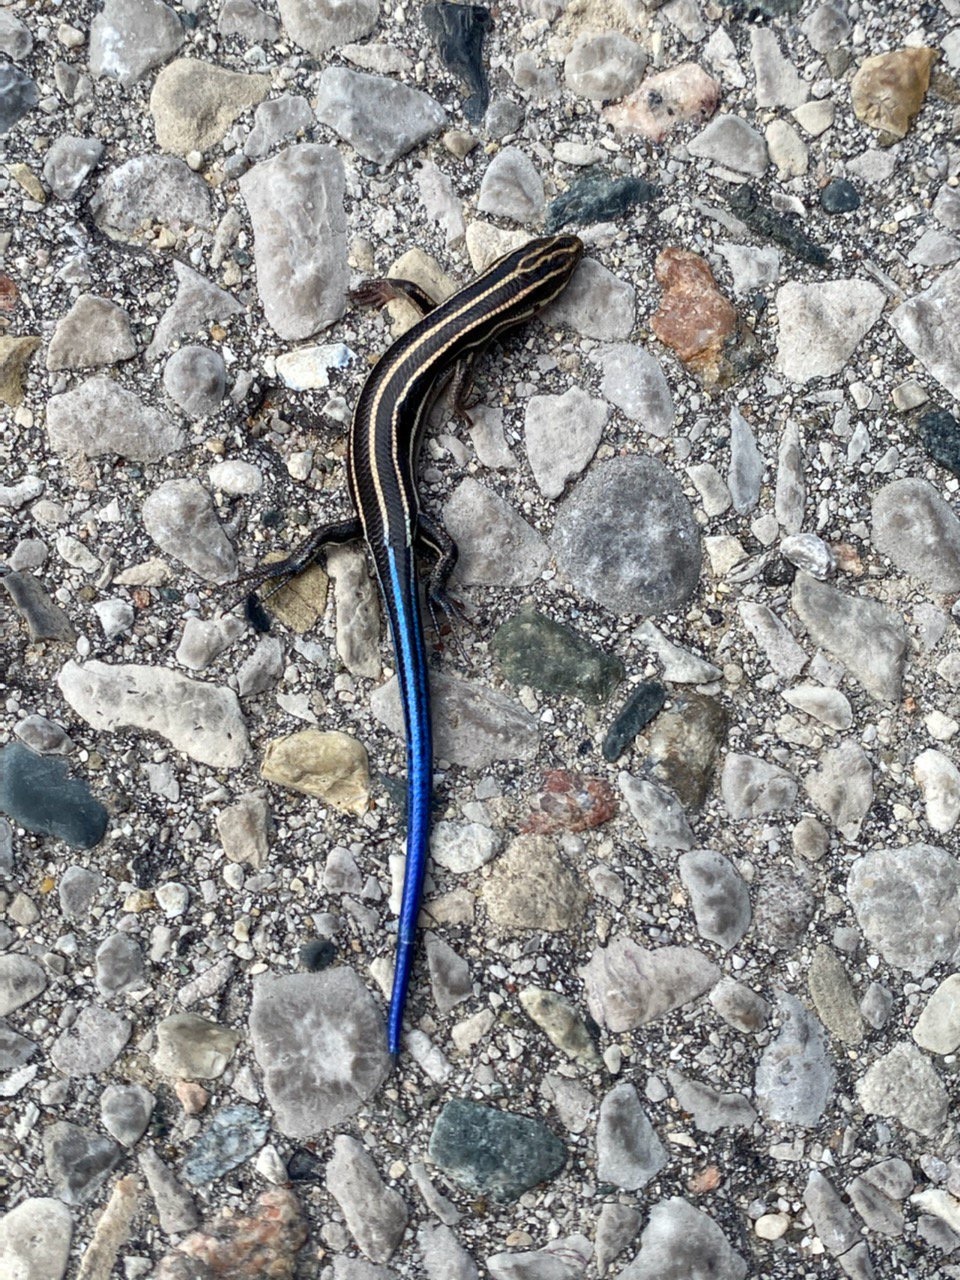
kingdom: Animalia
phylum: Chordata
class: Squamata
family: Scincidae
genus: Plestiodon
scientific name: Plestiodon fasciatus
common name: Five-lined skink
